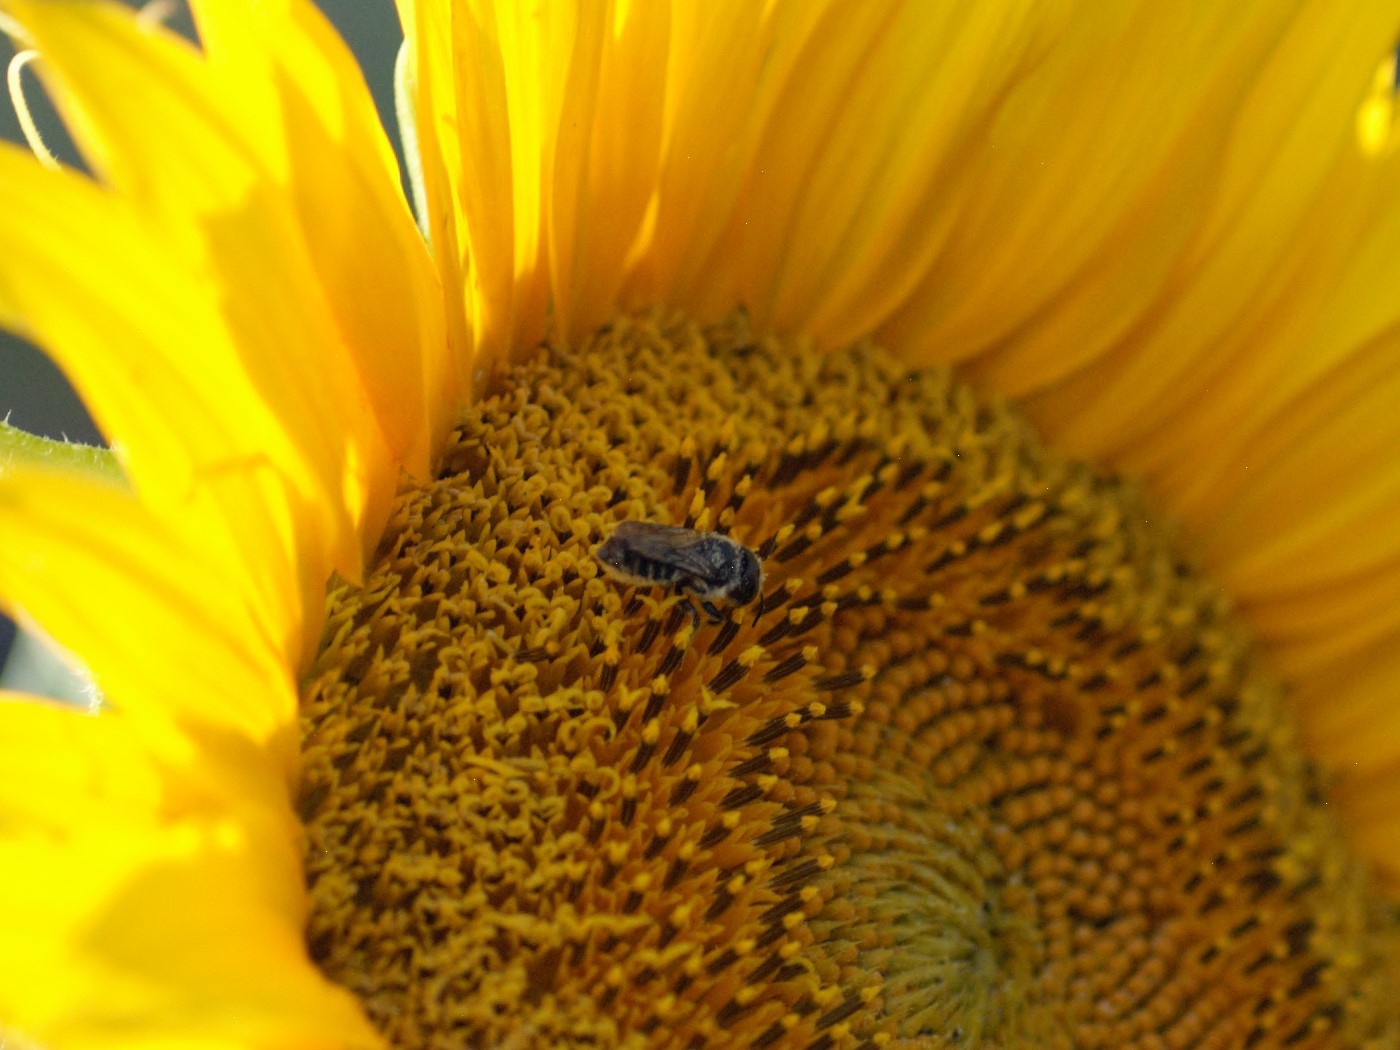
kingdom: Animalia
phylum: Arthropoda
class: Insecta
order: Hymenoptera
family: Megachilidae
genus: Megachile
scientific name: Megachile
